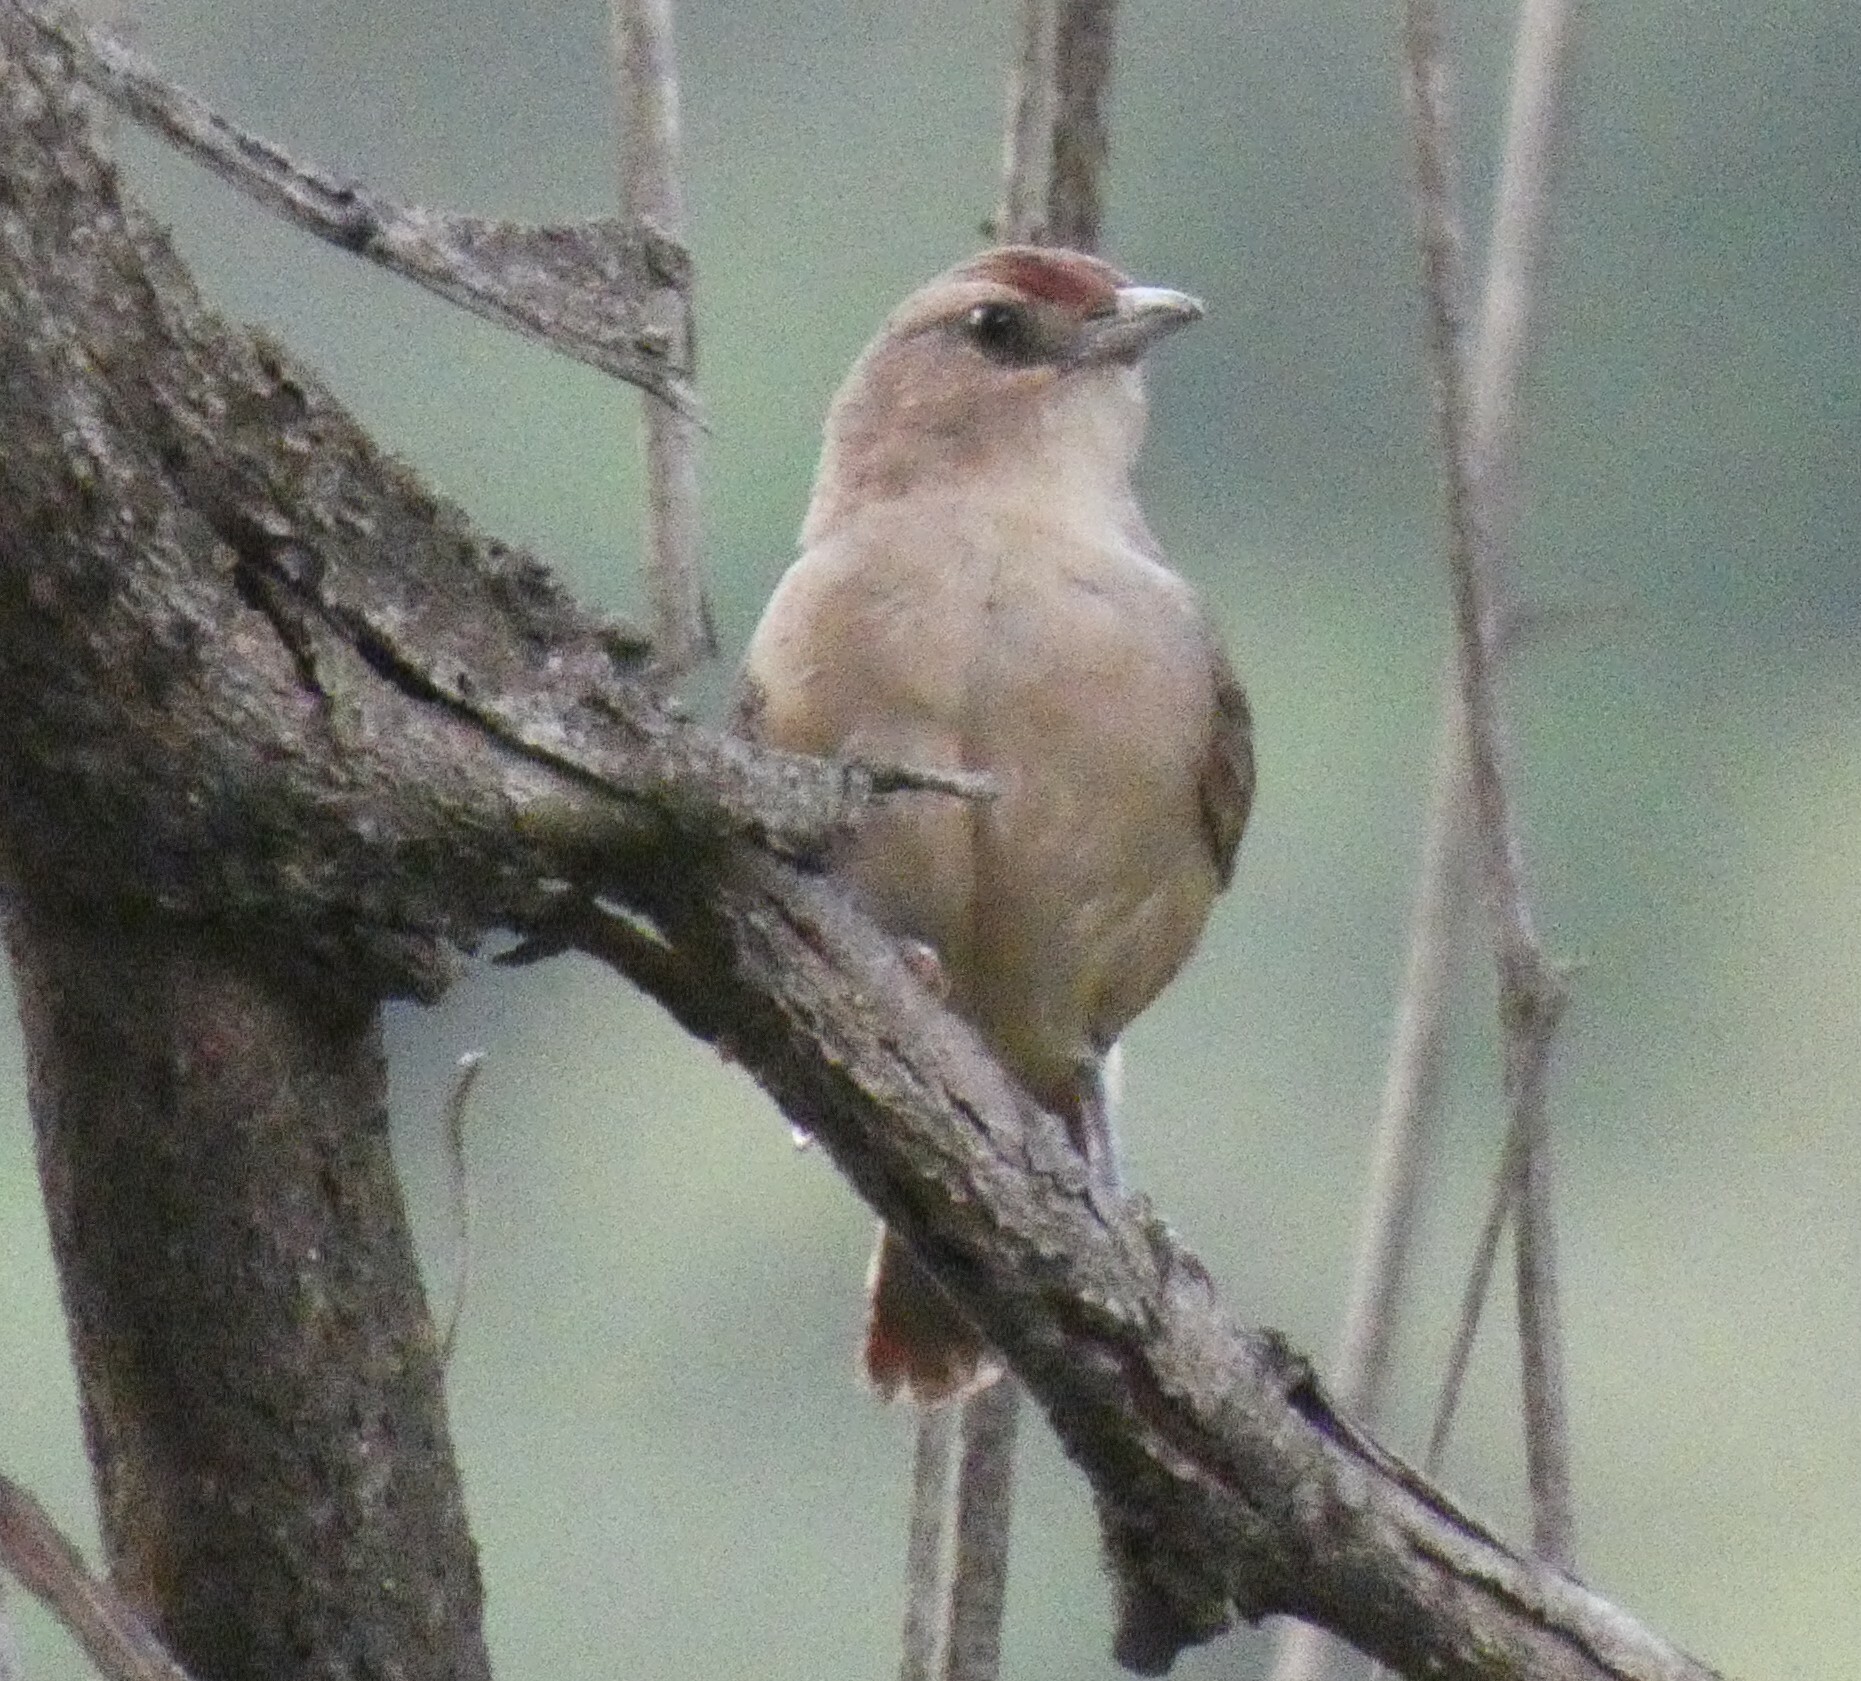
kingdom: Animalia
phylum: Chordata
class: Aves
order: Passeriformes
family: Furnariidae
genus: Phacellodomus
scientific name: Phacellodomus rufifrons
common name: Rufous-fronted thornbird
